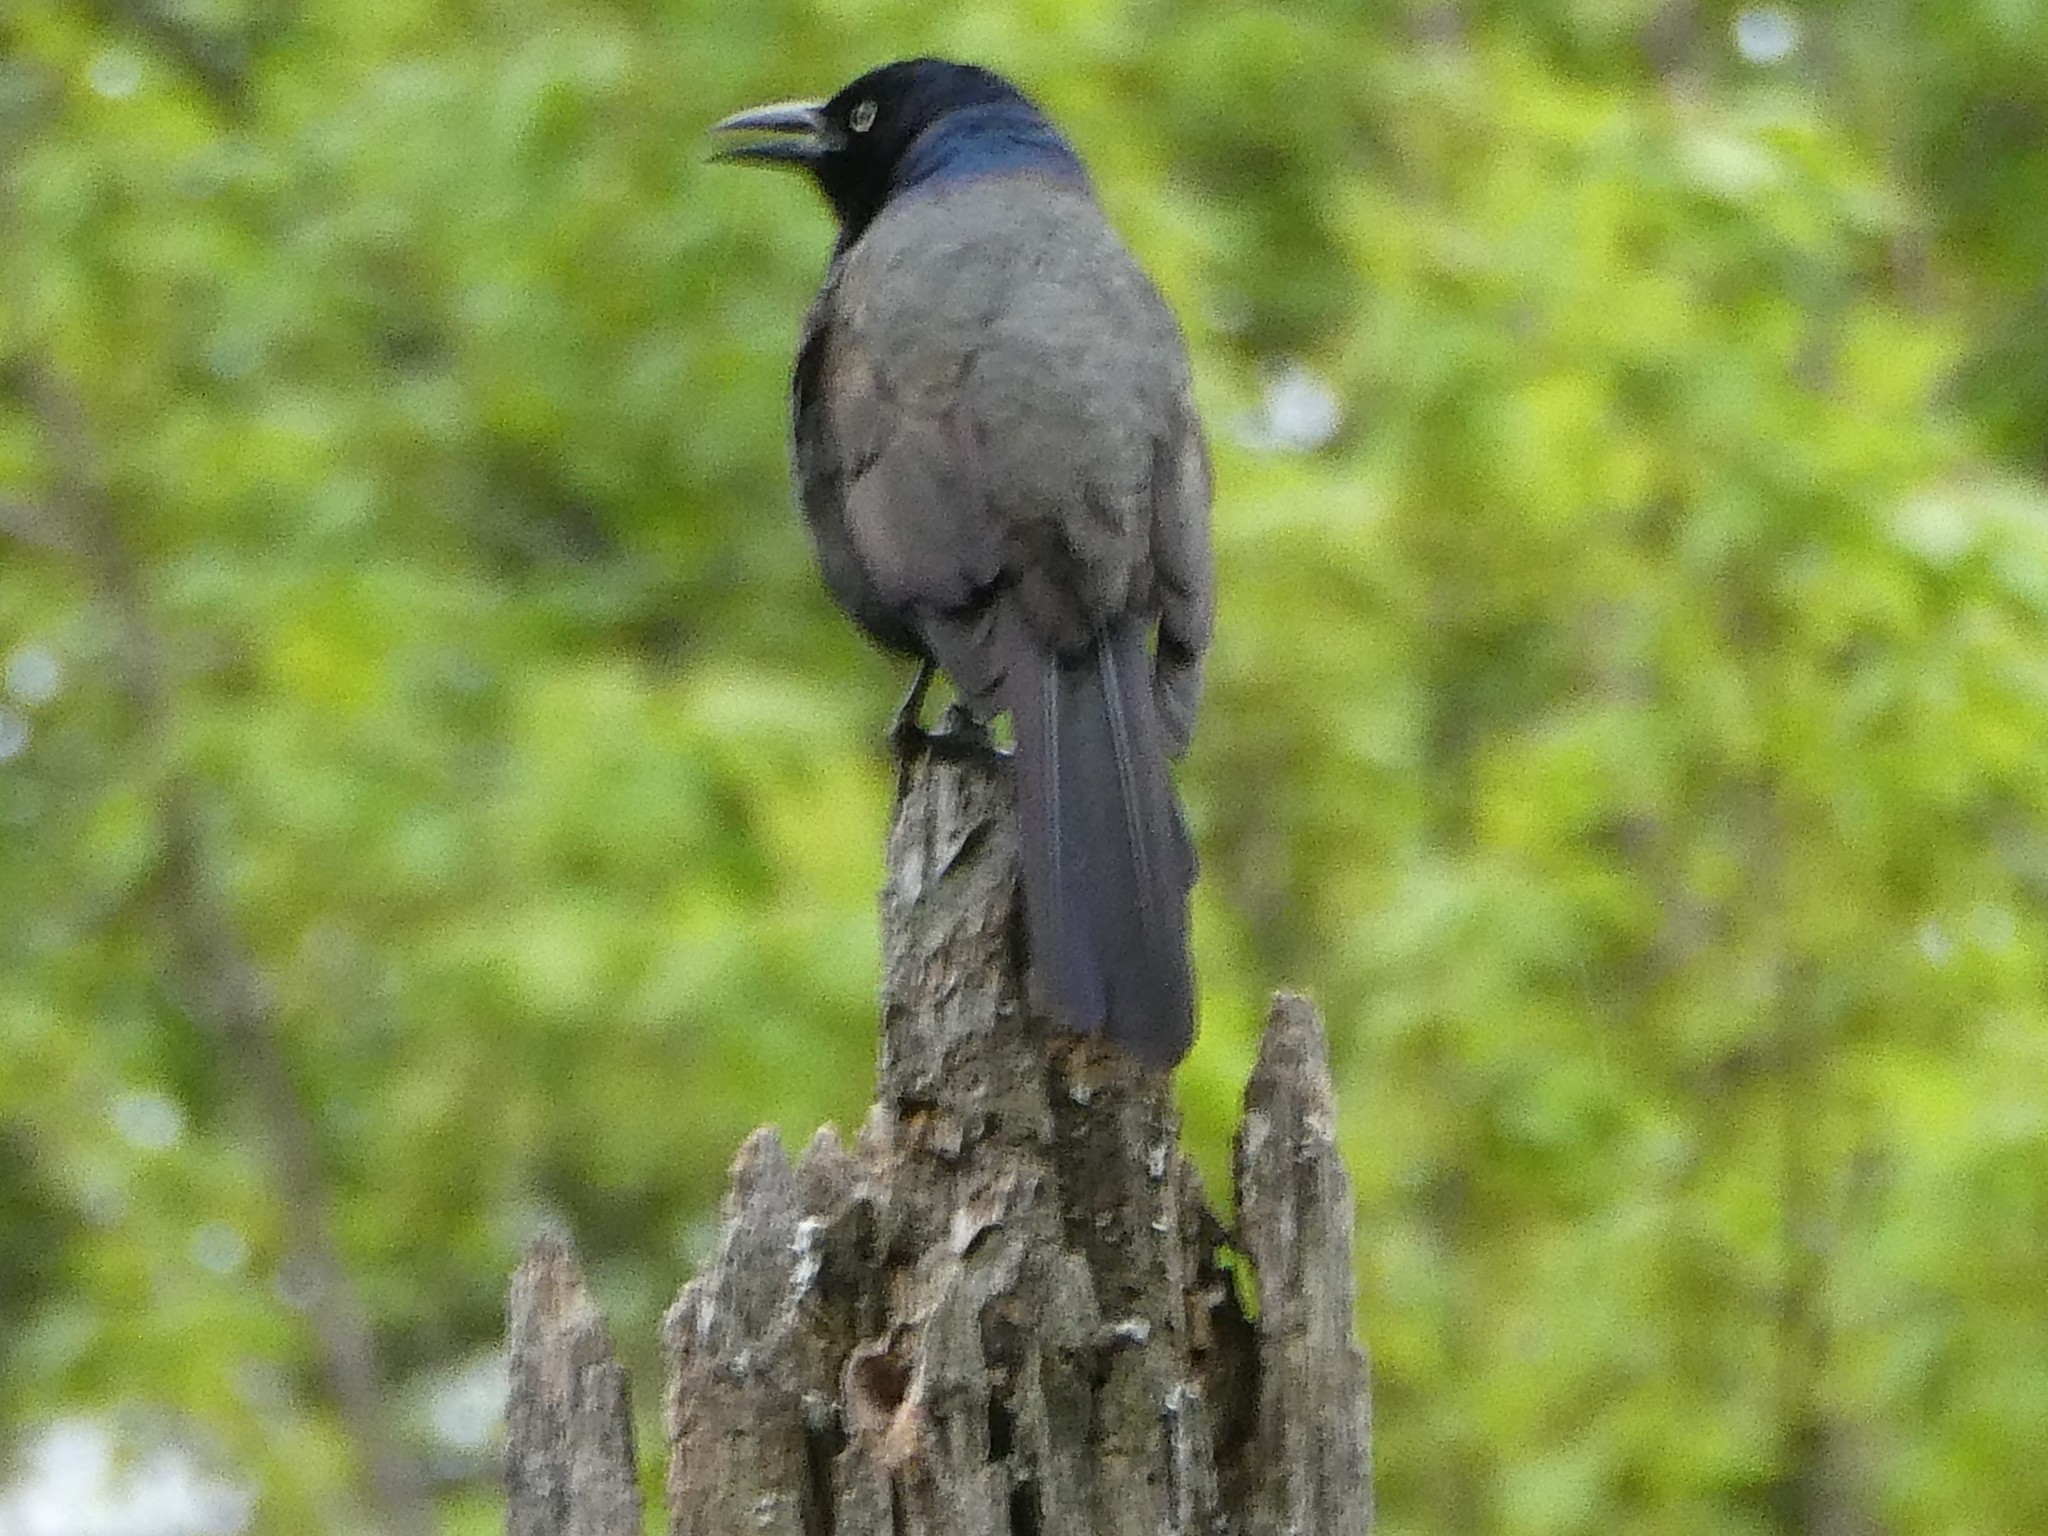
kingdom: Animalia
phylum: Chordata
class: Aves
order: Passeriformes
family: Icteridae
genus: Quiscalus
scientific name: Quiscalus quiscula
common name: Common grackle
